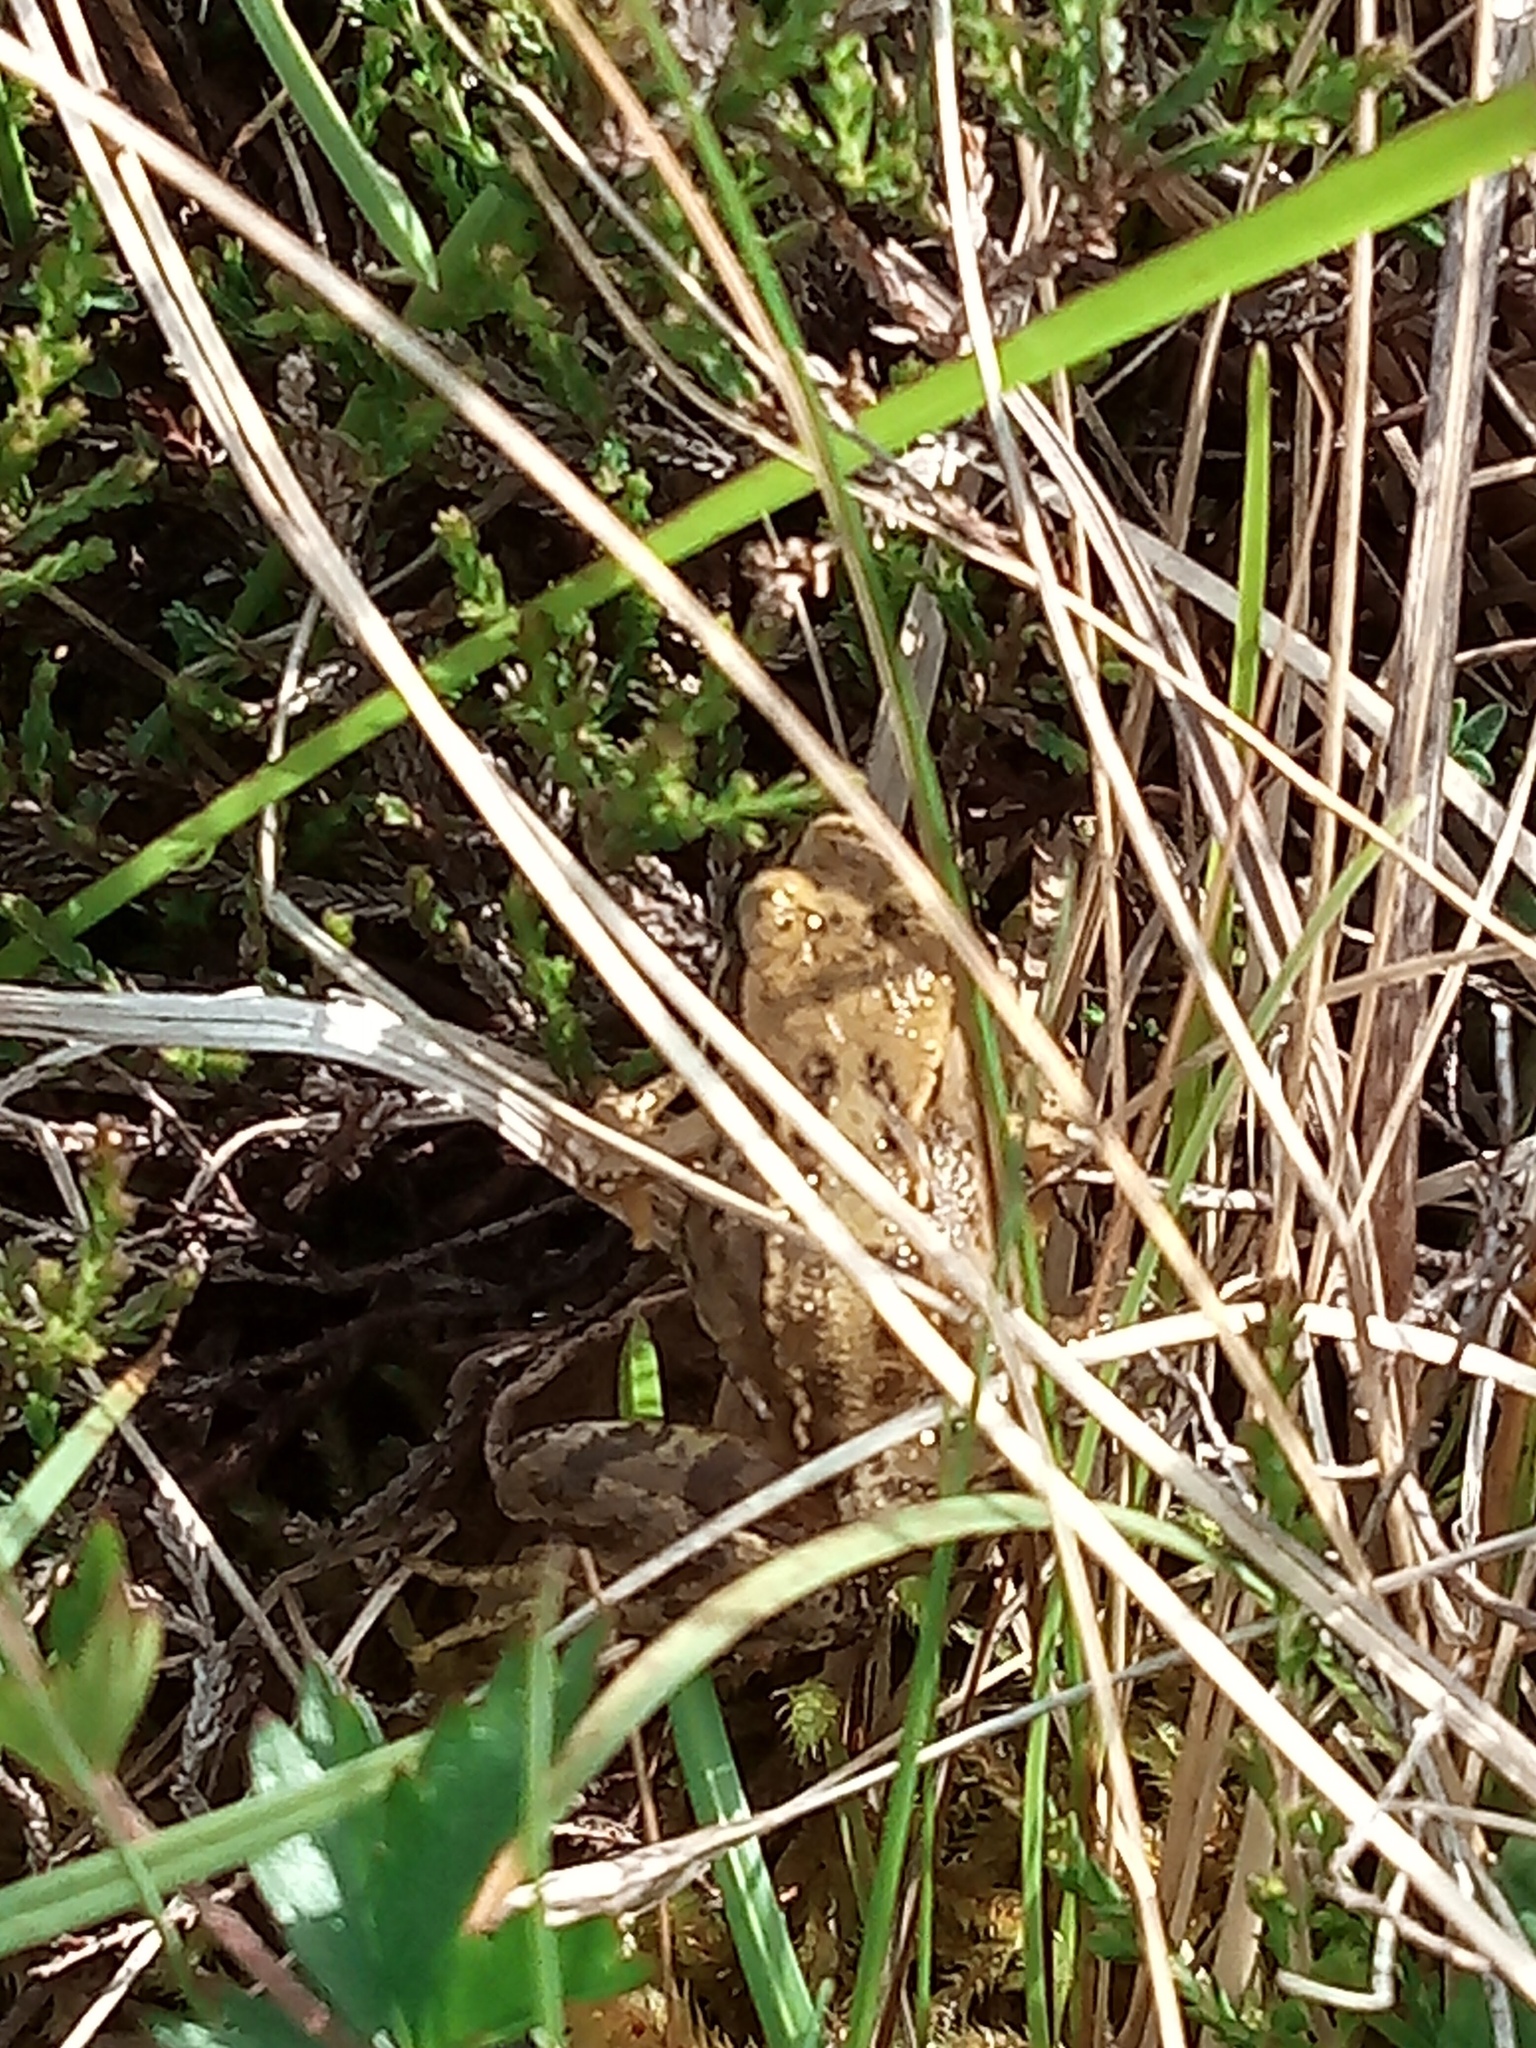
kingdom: Animalia
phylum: Chordata
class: Amphibia
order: Anura
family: Ranidae
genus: Rana
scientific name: Rana temporaria
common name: Common frog
